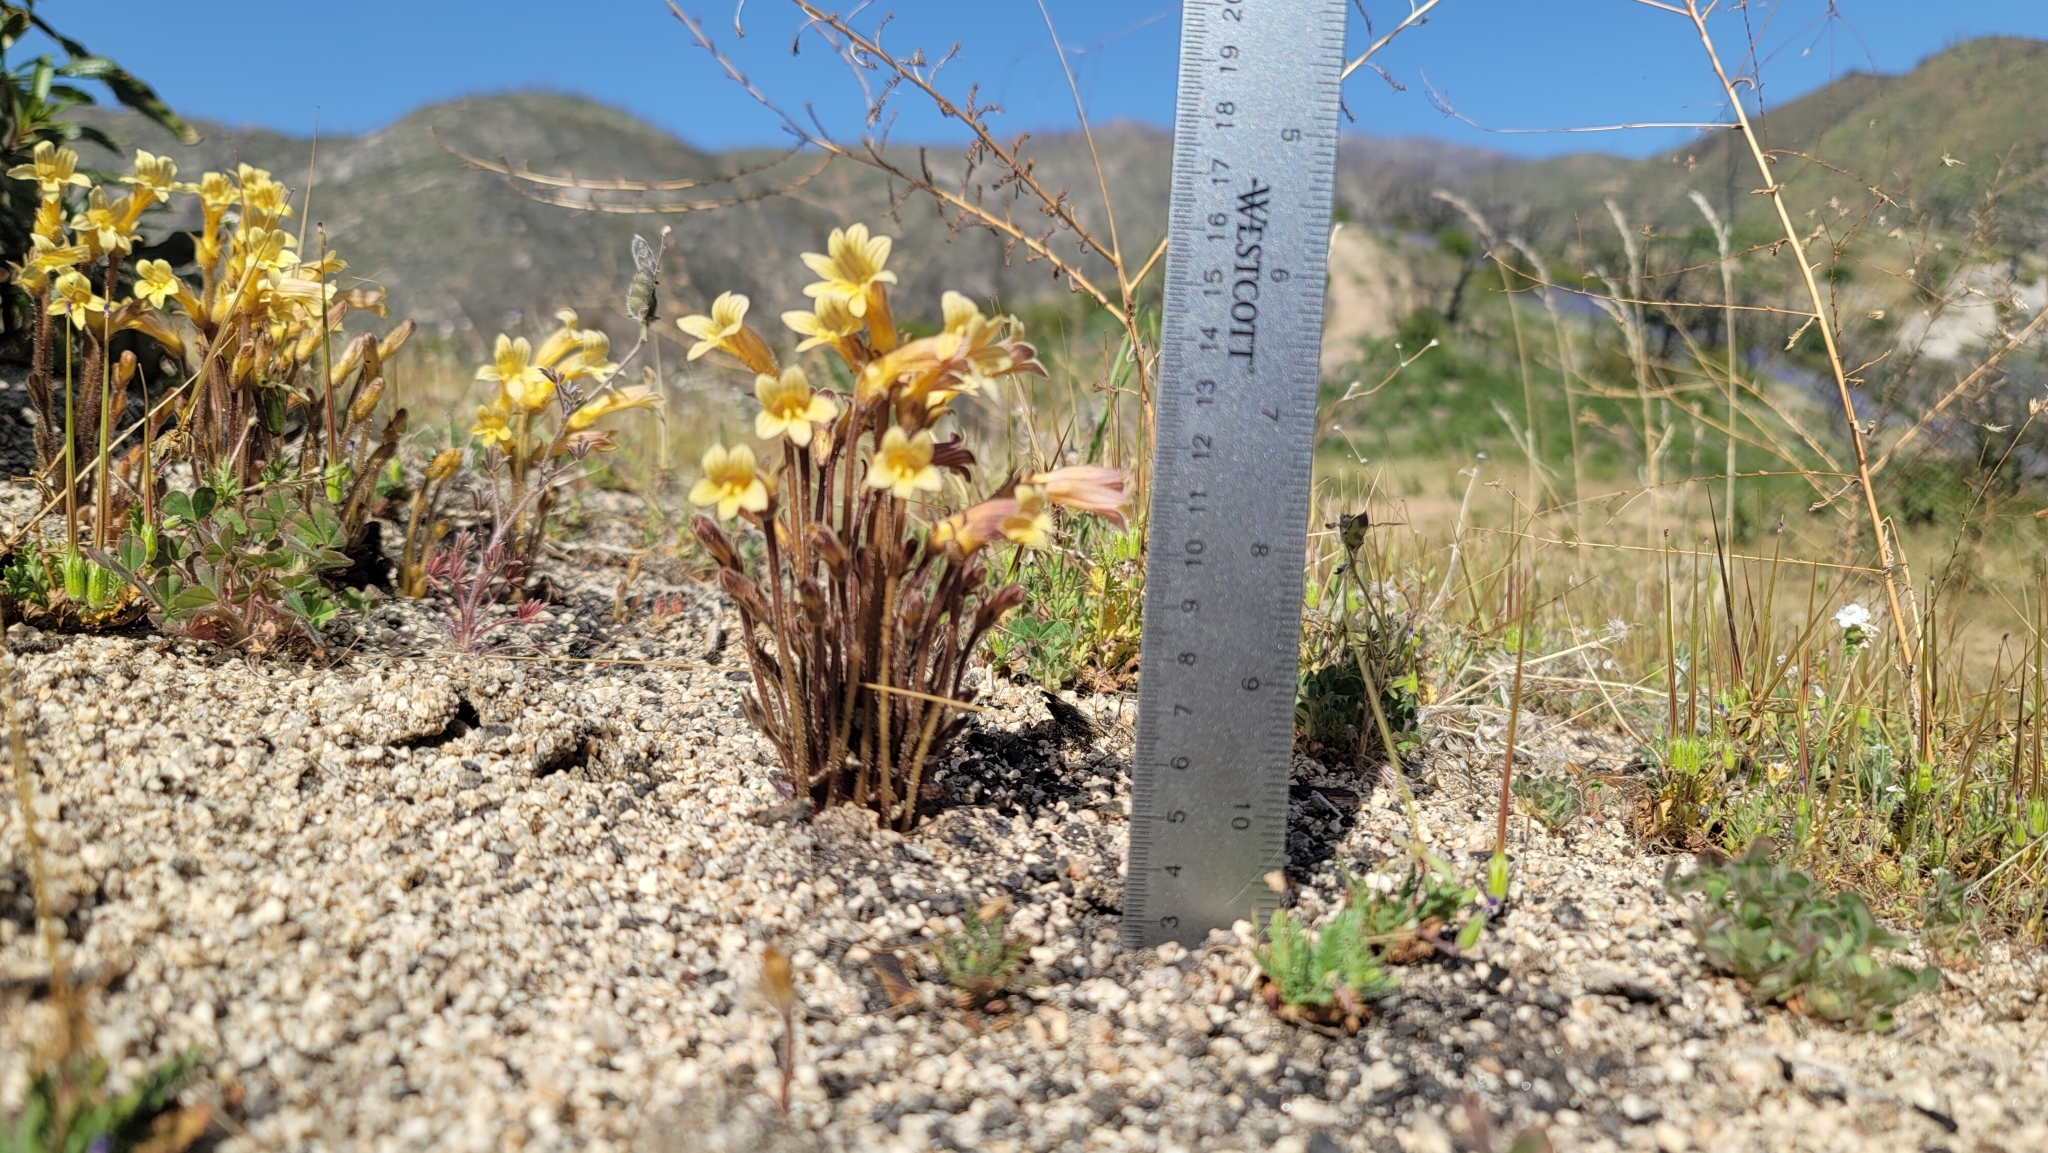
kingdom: Plantae
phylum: Tracheophyta
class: Magnoliopsida
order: Lamiales
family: Orobanchaceae
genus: Aphyllon
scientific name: Aphyllon franciscanum
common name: San francisco broomrape
